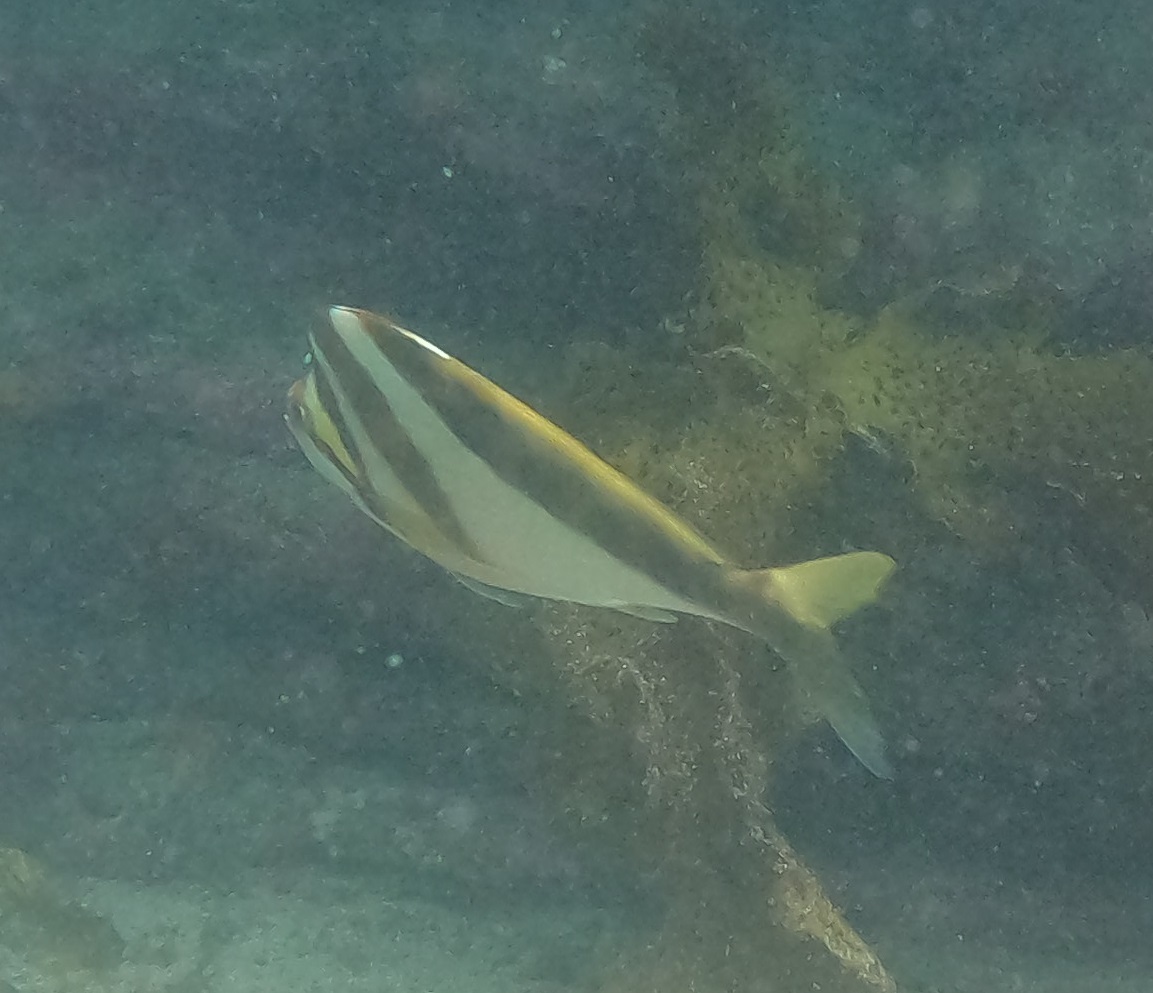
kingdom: Animalia
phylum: Chordata
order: Perciformes
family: Cheilodactylidae
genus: Cheilodactylus
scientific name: Cheilodactylus vestitus
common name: Crested morwong
